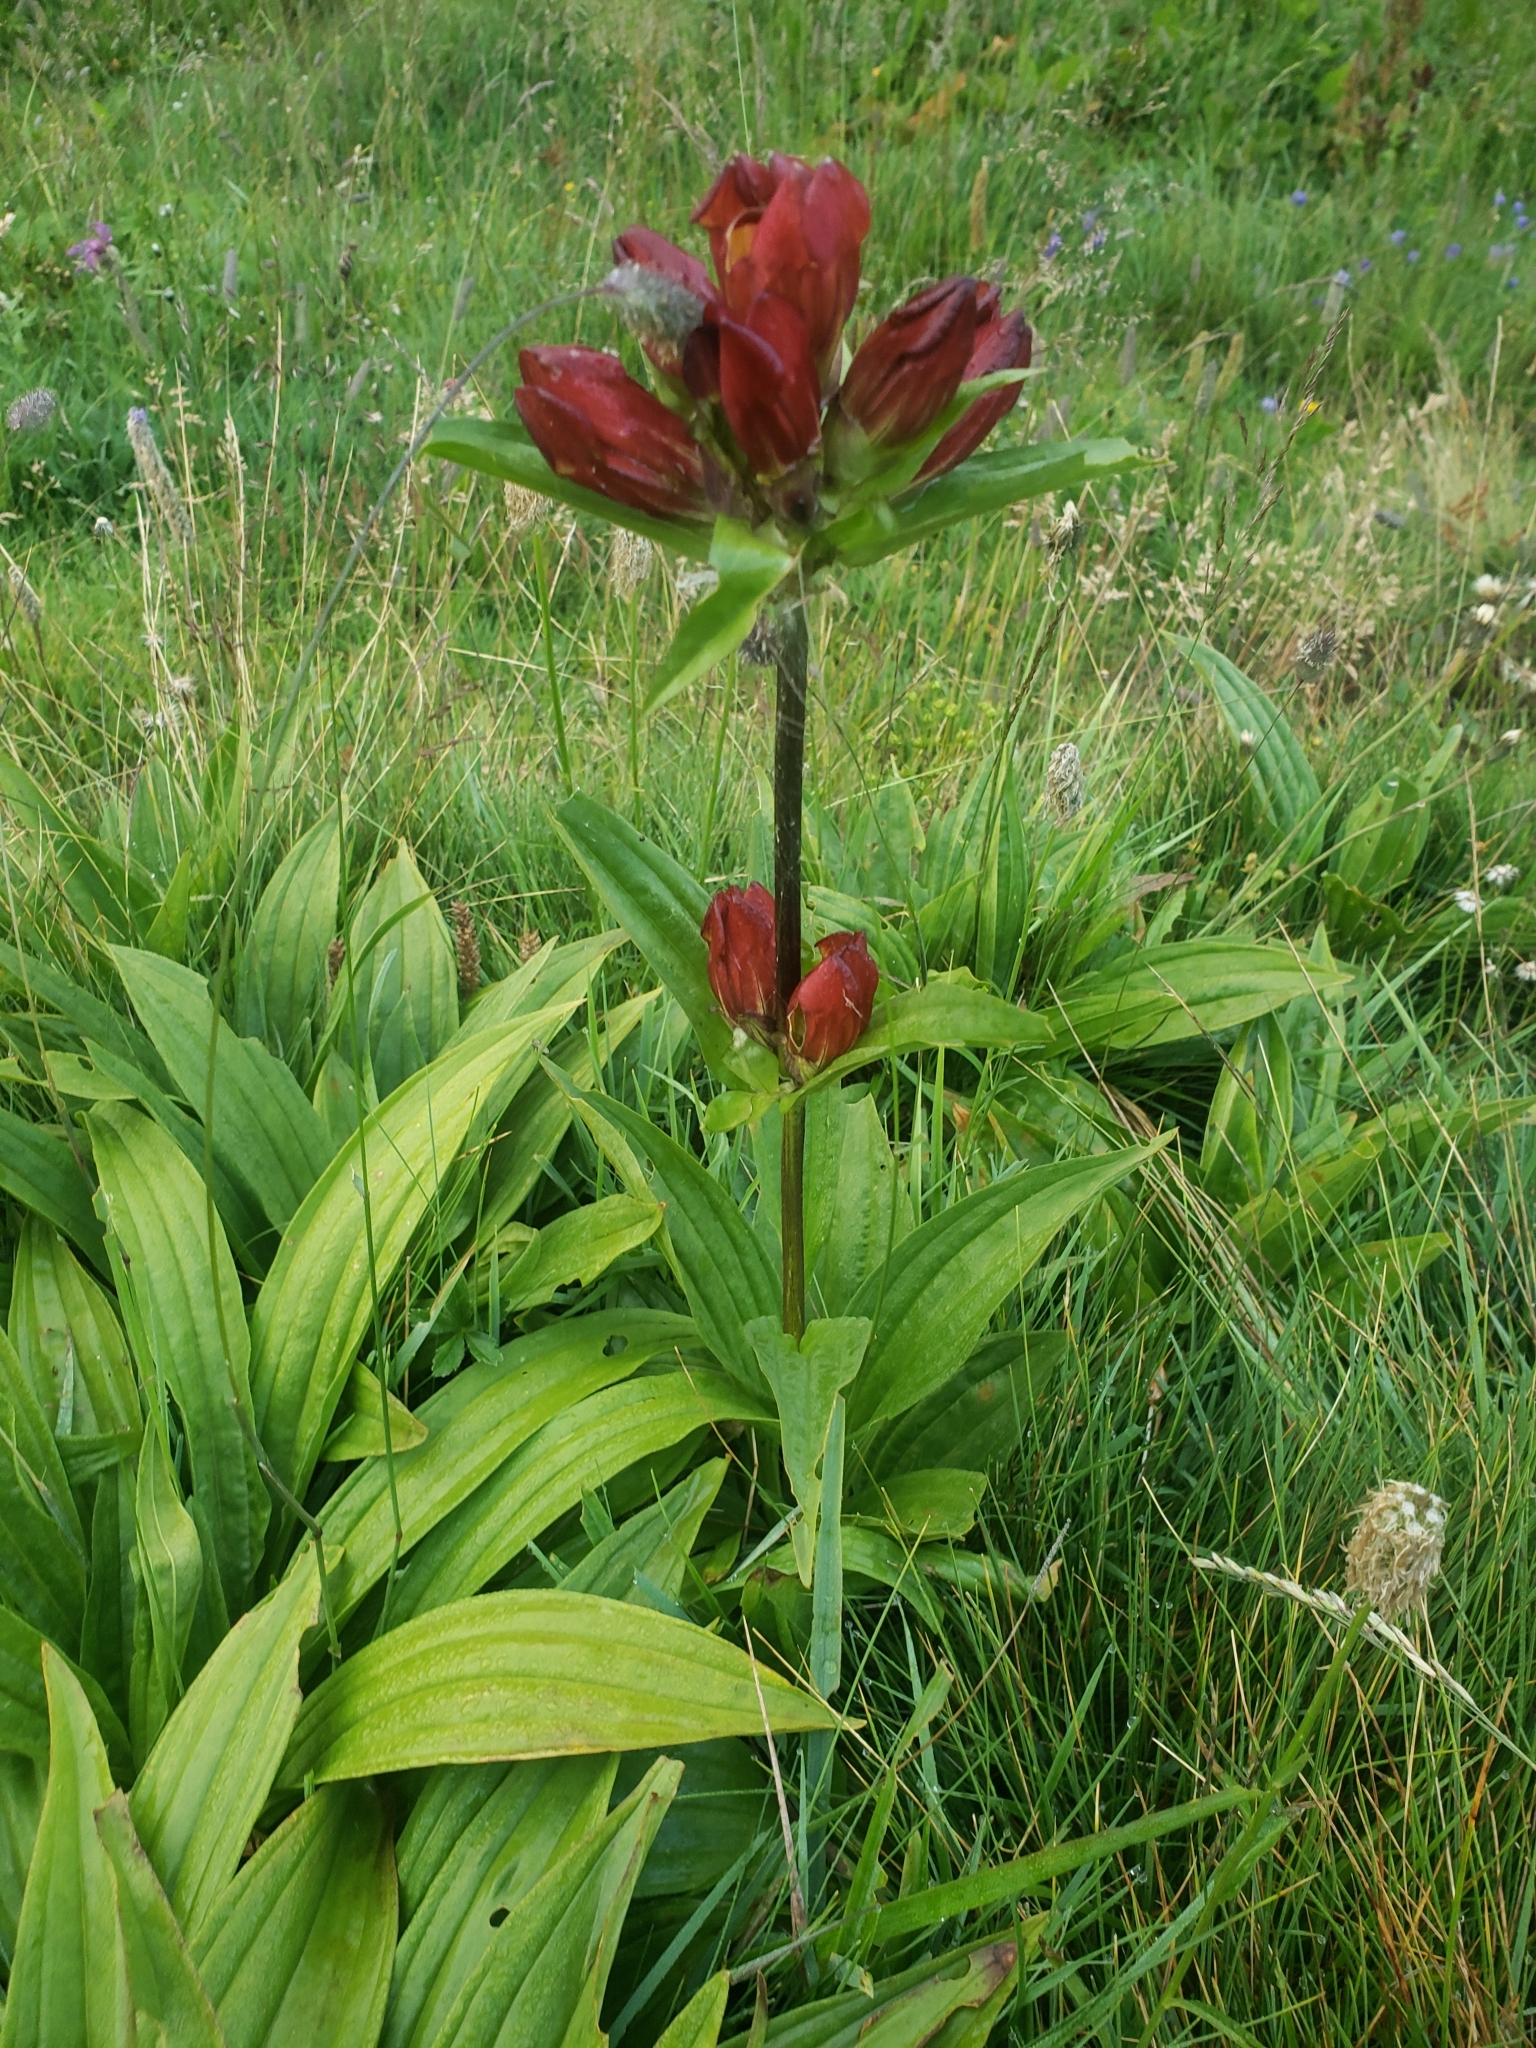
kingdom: Plantae
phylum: Tracheophyta
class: Magnoliopsida
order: Gentianales
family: Gentianaceae
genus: Gentiana
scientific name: Gentiana purpurea
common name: Purple gentian
